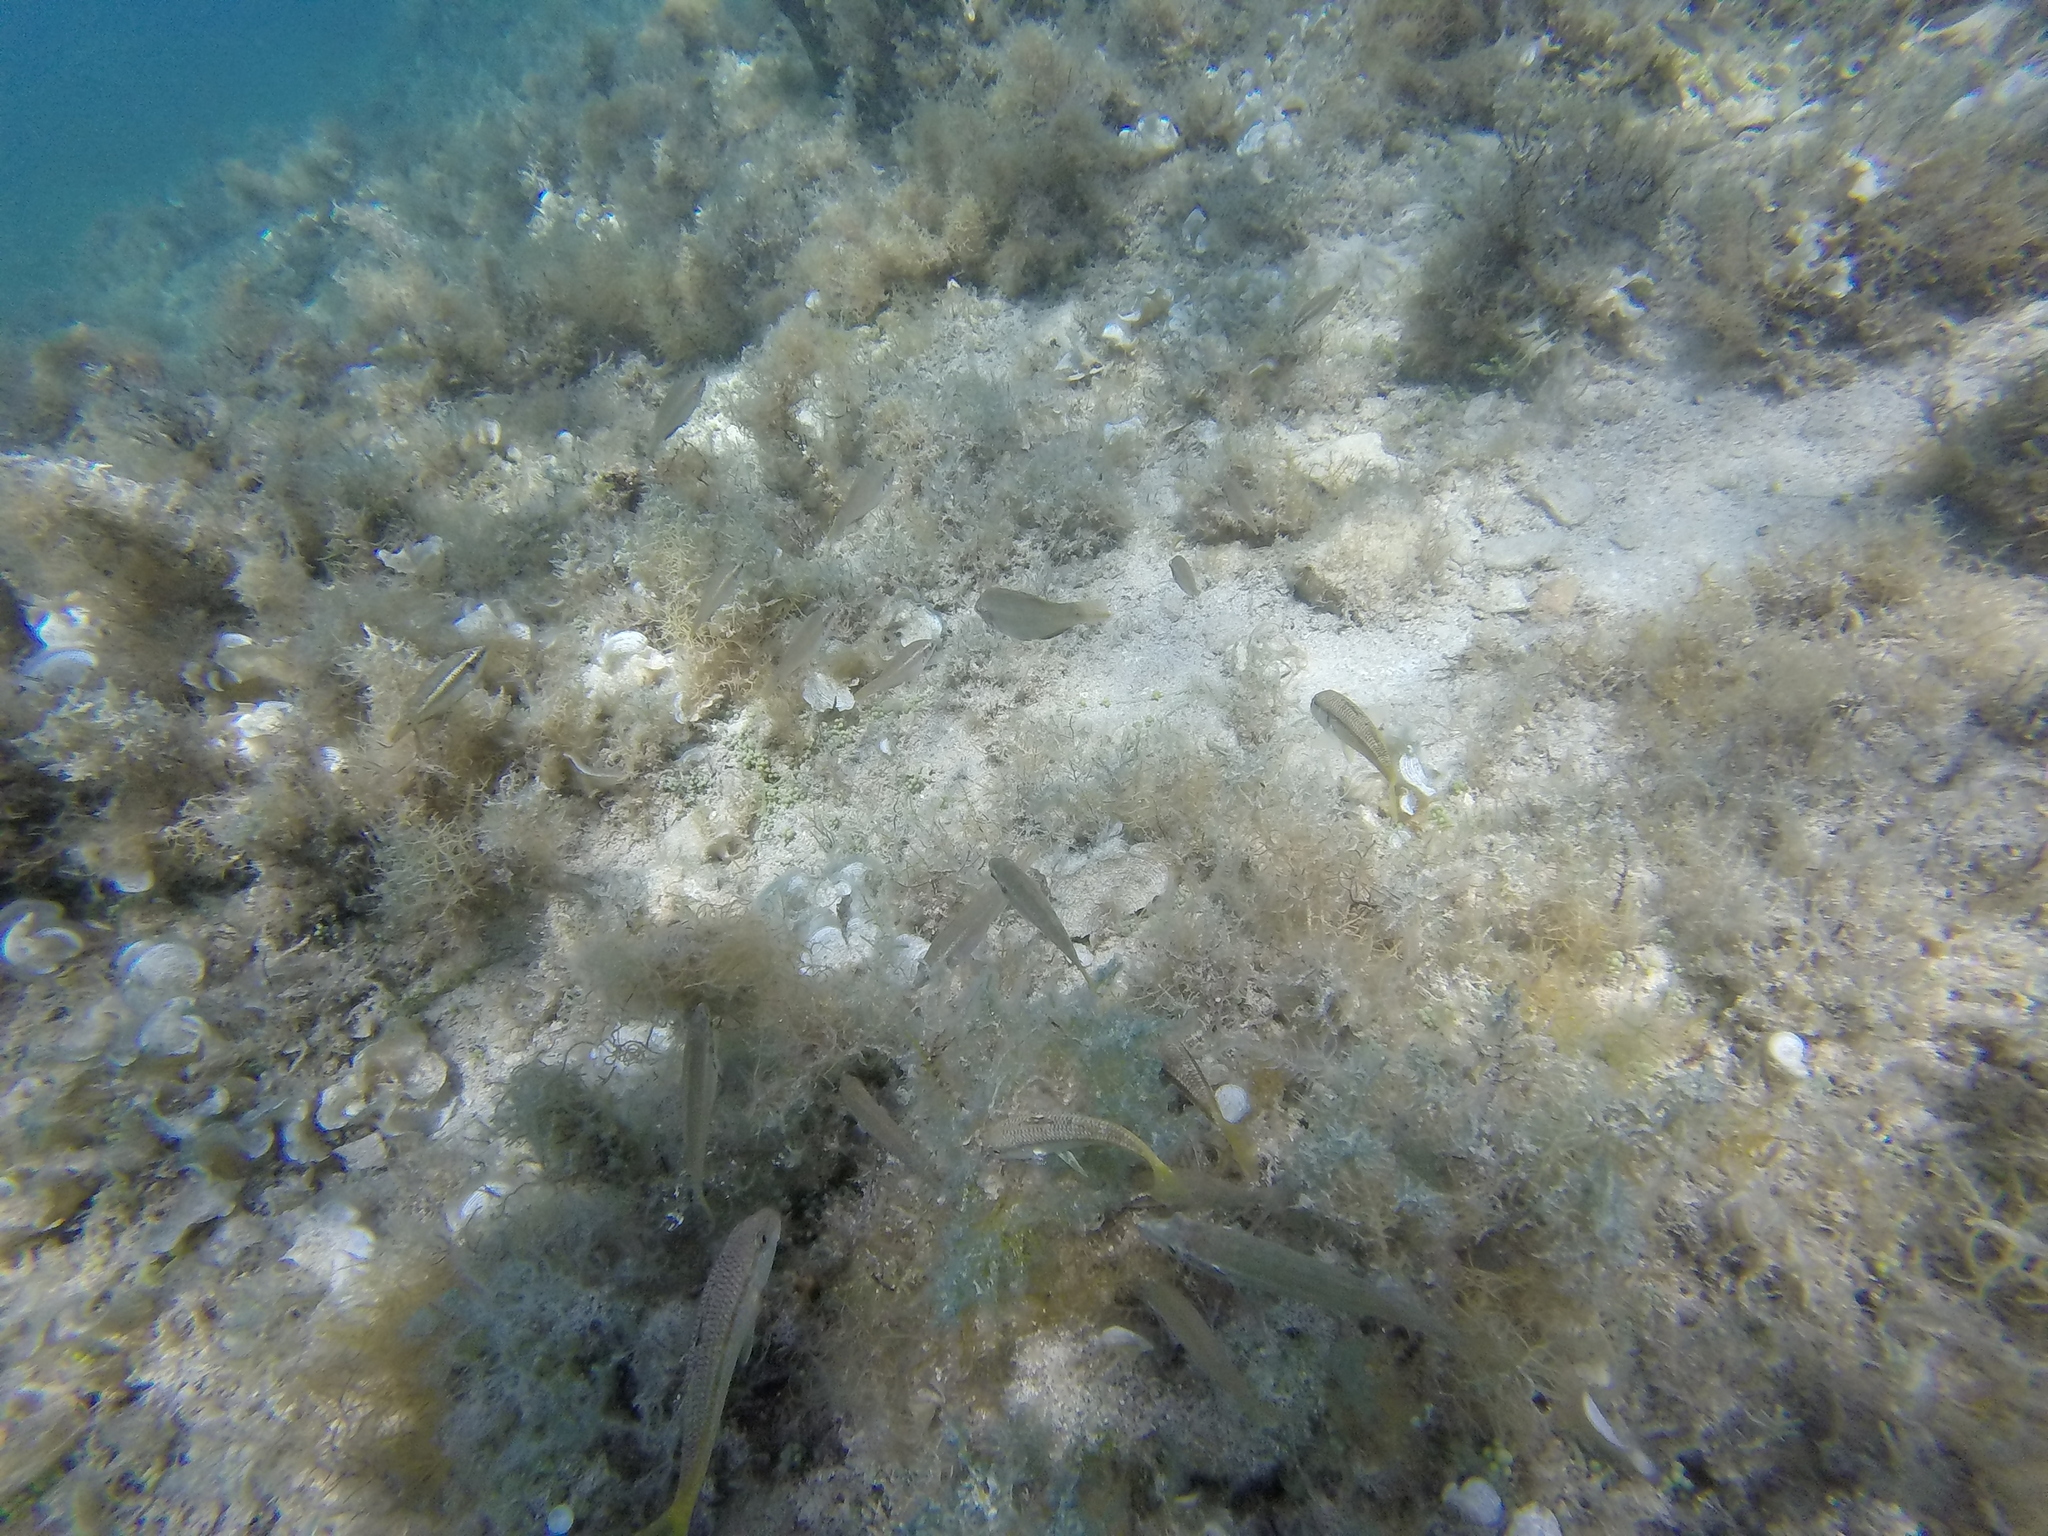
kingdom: Animalia
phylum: Chordata
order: Perciformes
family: Mullidae
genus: Mullus
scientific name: Mullus surmuletus
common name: Red mullet
